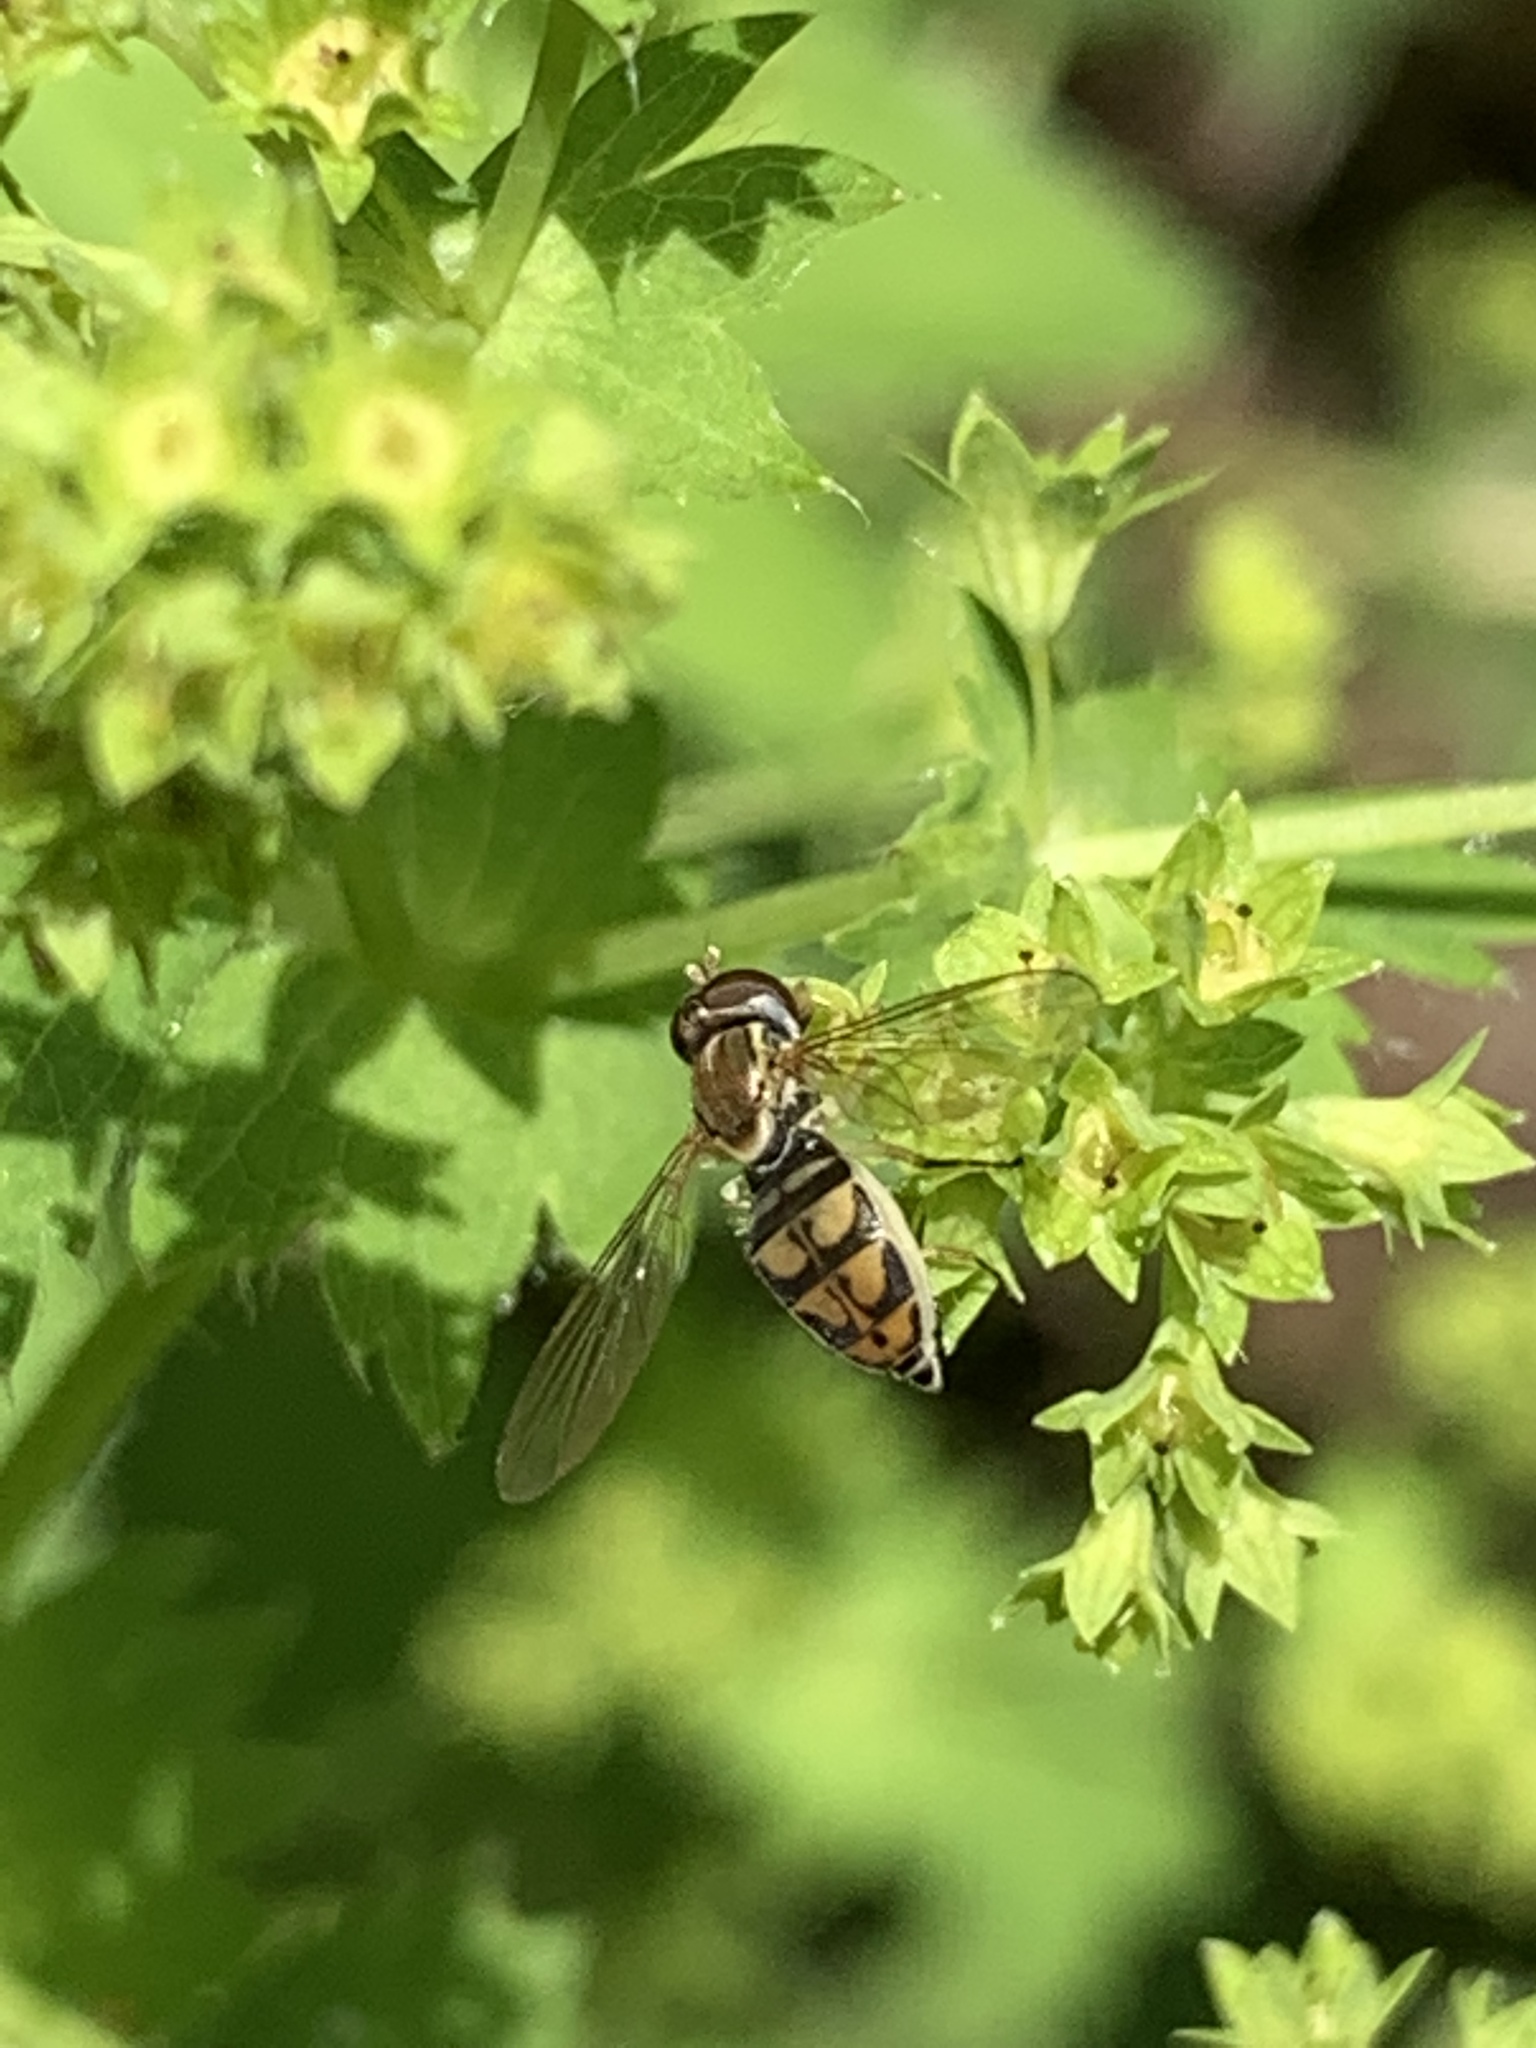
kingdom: Animalia
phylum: Arthropoda
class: Insecta
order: Diptera
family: Syrphidae
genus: Toxomerus
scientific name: Toxomerus marginatus
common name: Syrphid fly
